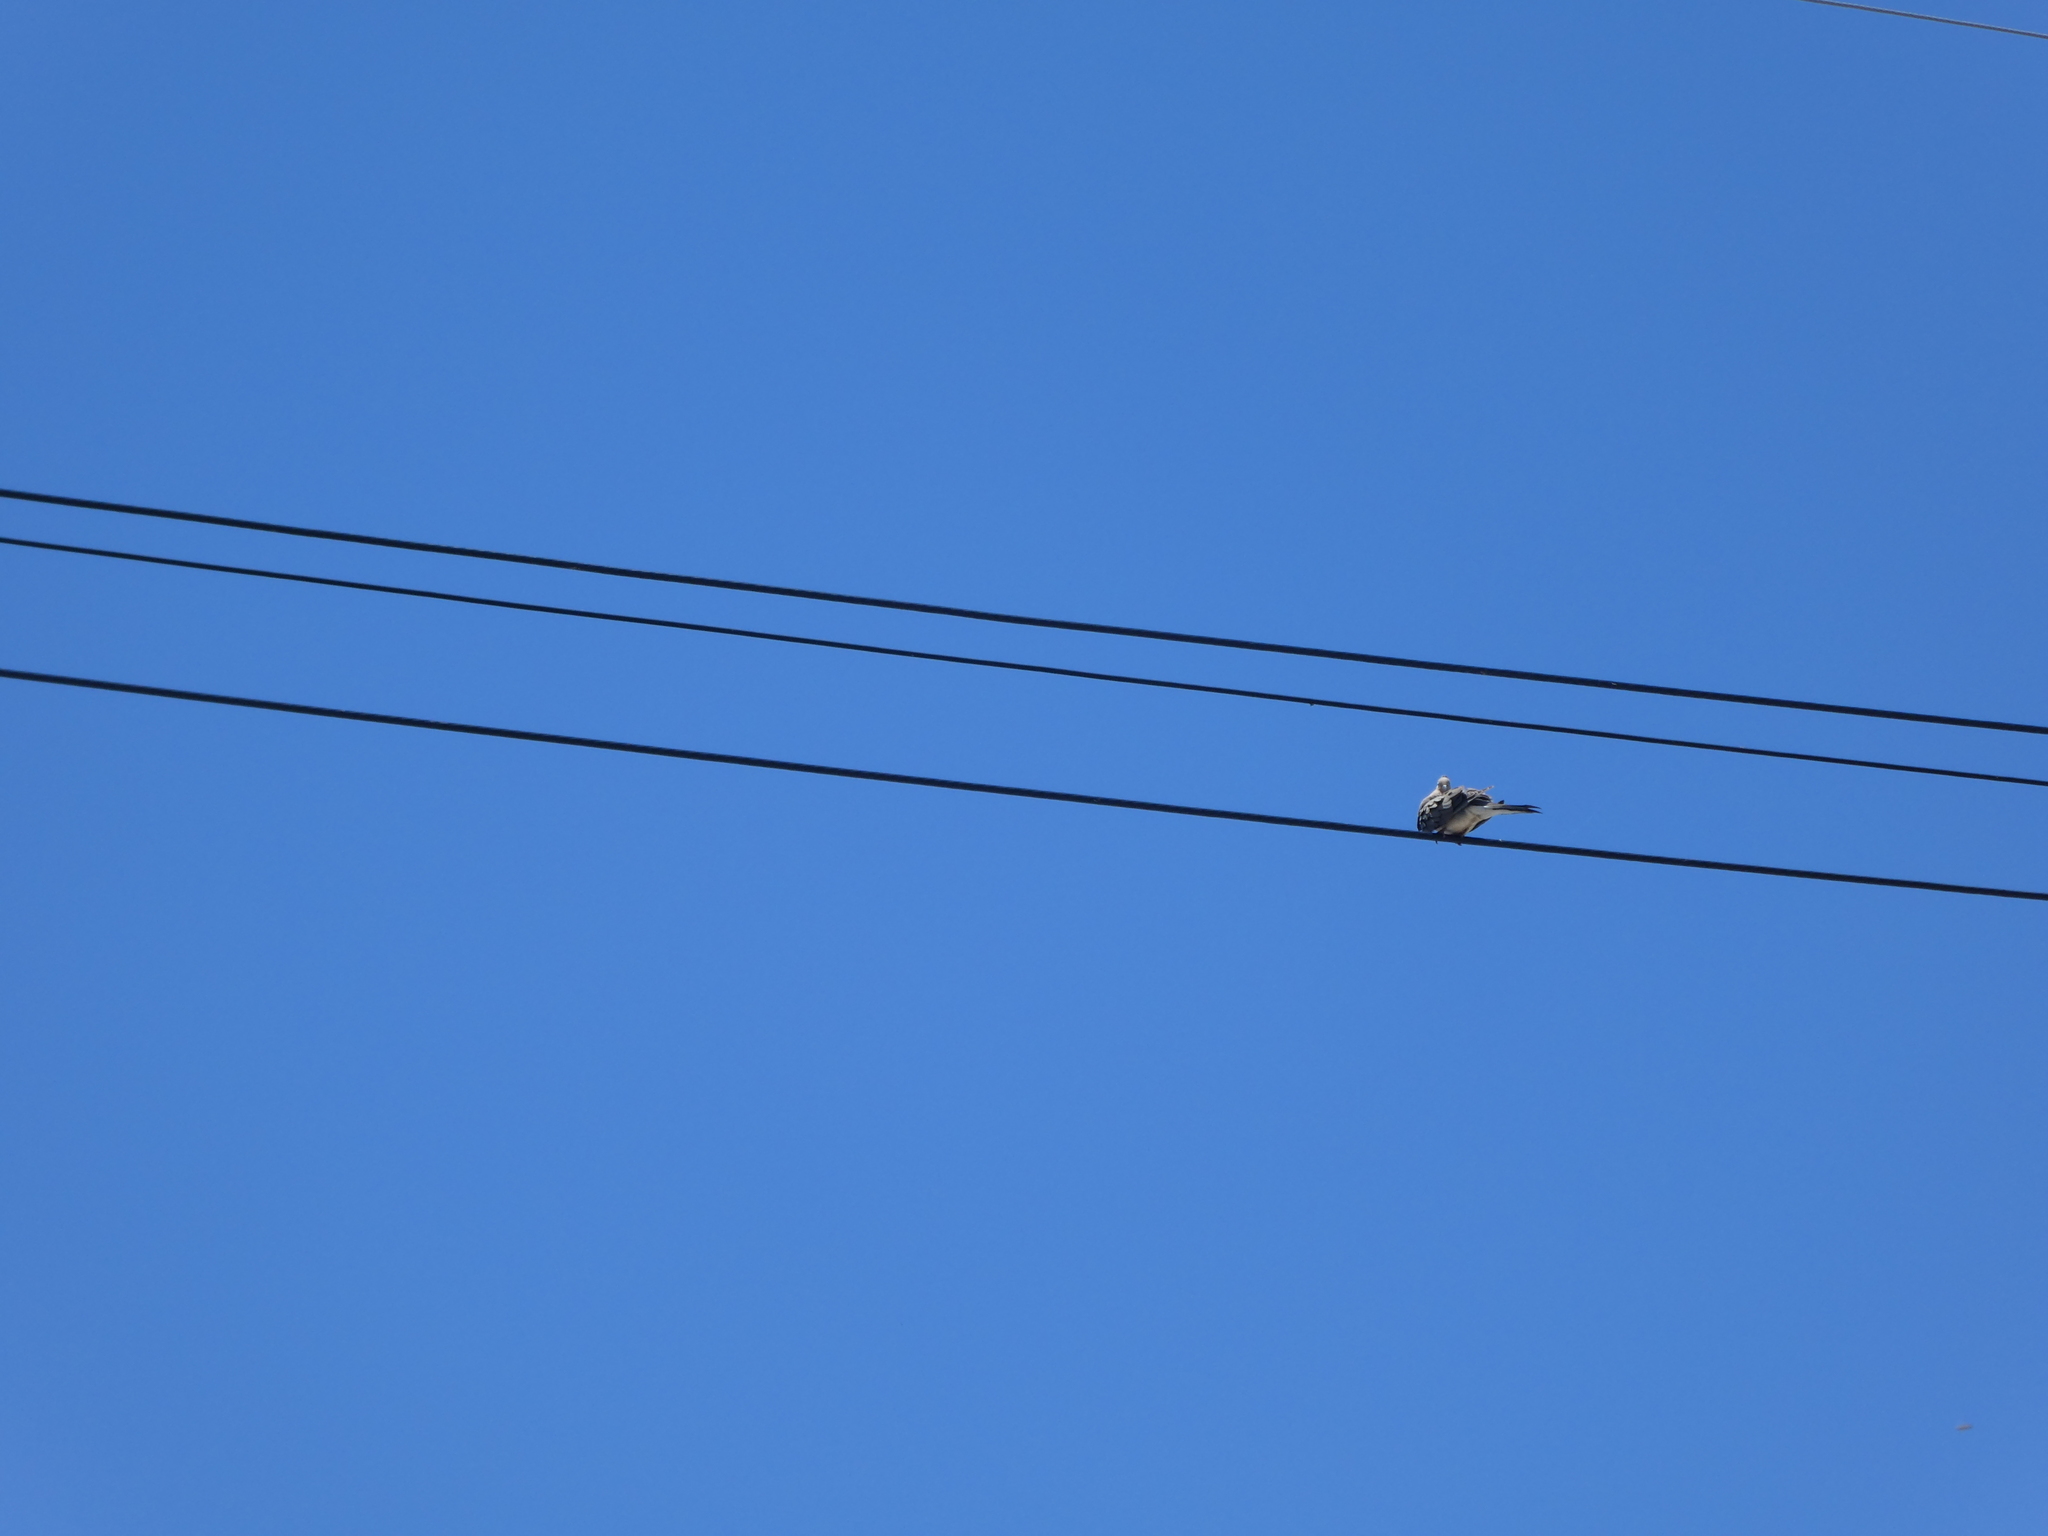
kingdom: Animalia
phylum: Chordata
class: Aves
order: Columbiformes
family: Columbidae
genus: Zenaida
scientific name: Zenaida macroura
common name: Mourning dove
